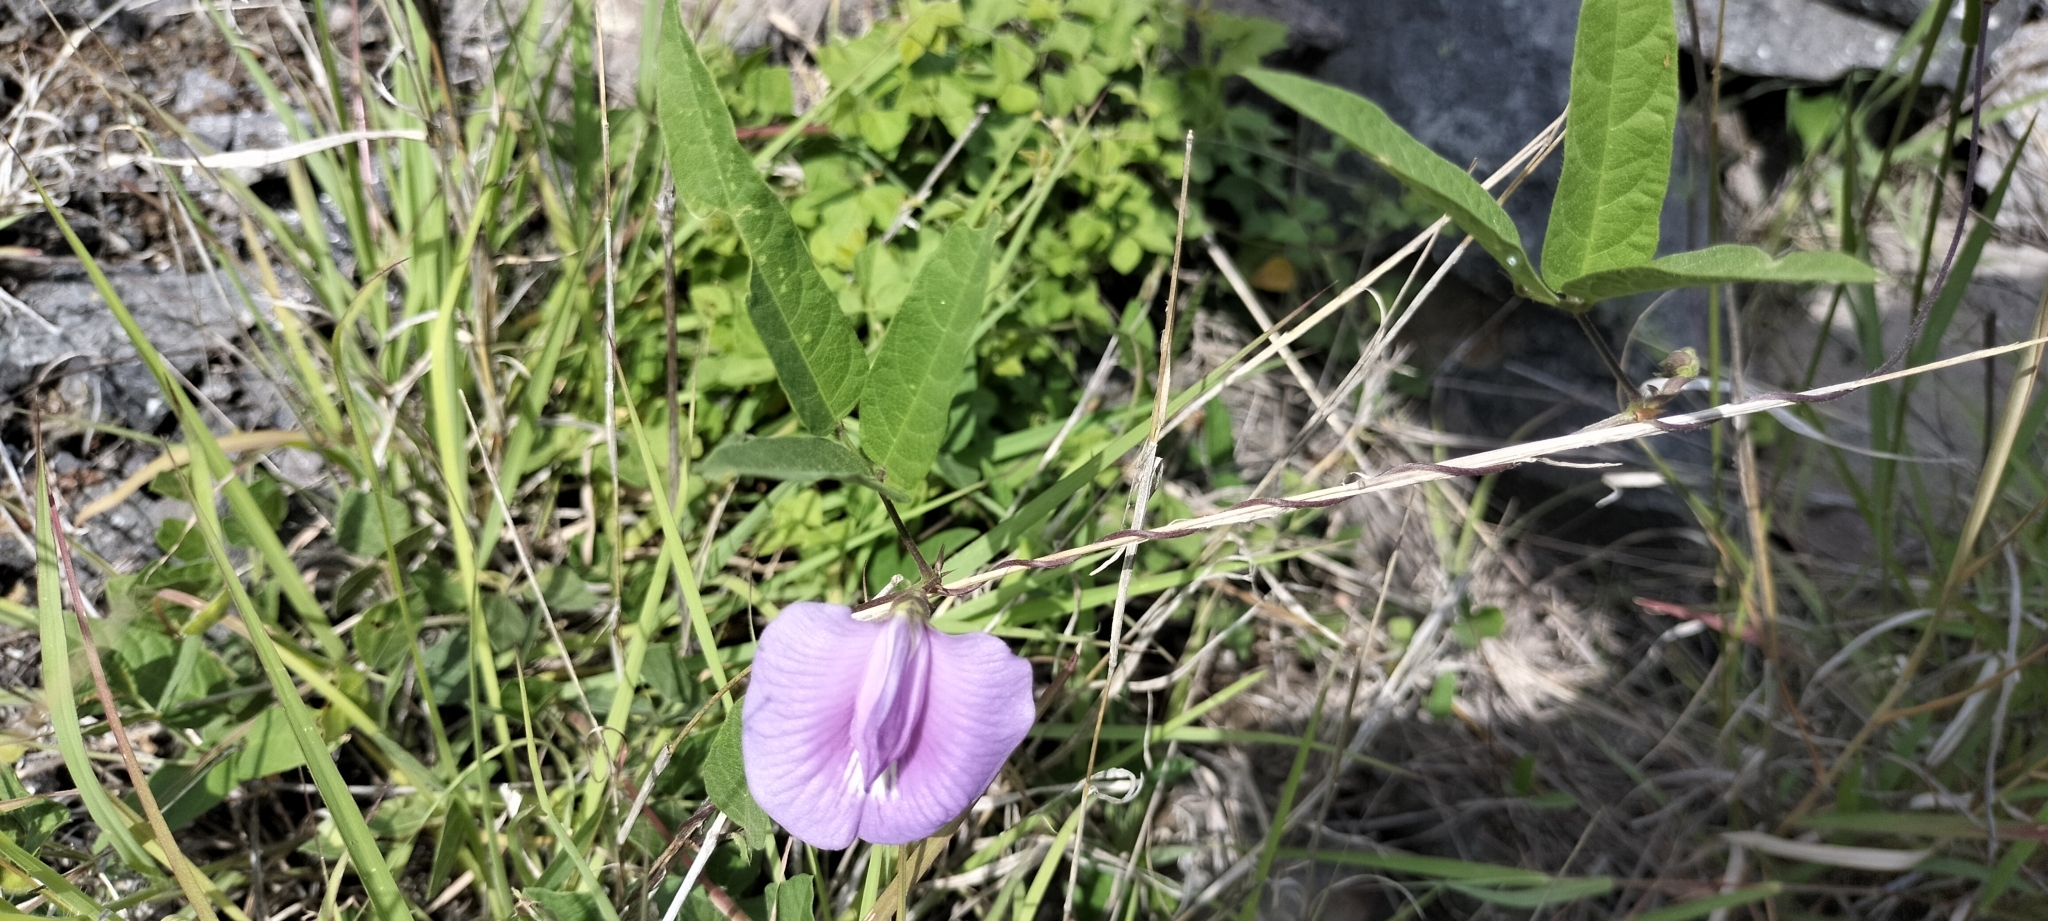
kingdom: Plantae
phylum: Tracheophyta
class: Magnoliopsida
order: Fabales
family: Fabaceae
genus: Centrosema
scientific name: Centrosema virginianum
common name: Butterfly-pea
